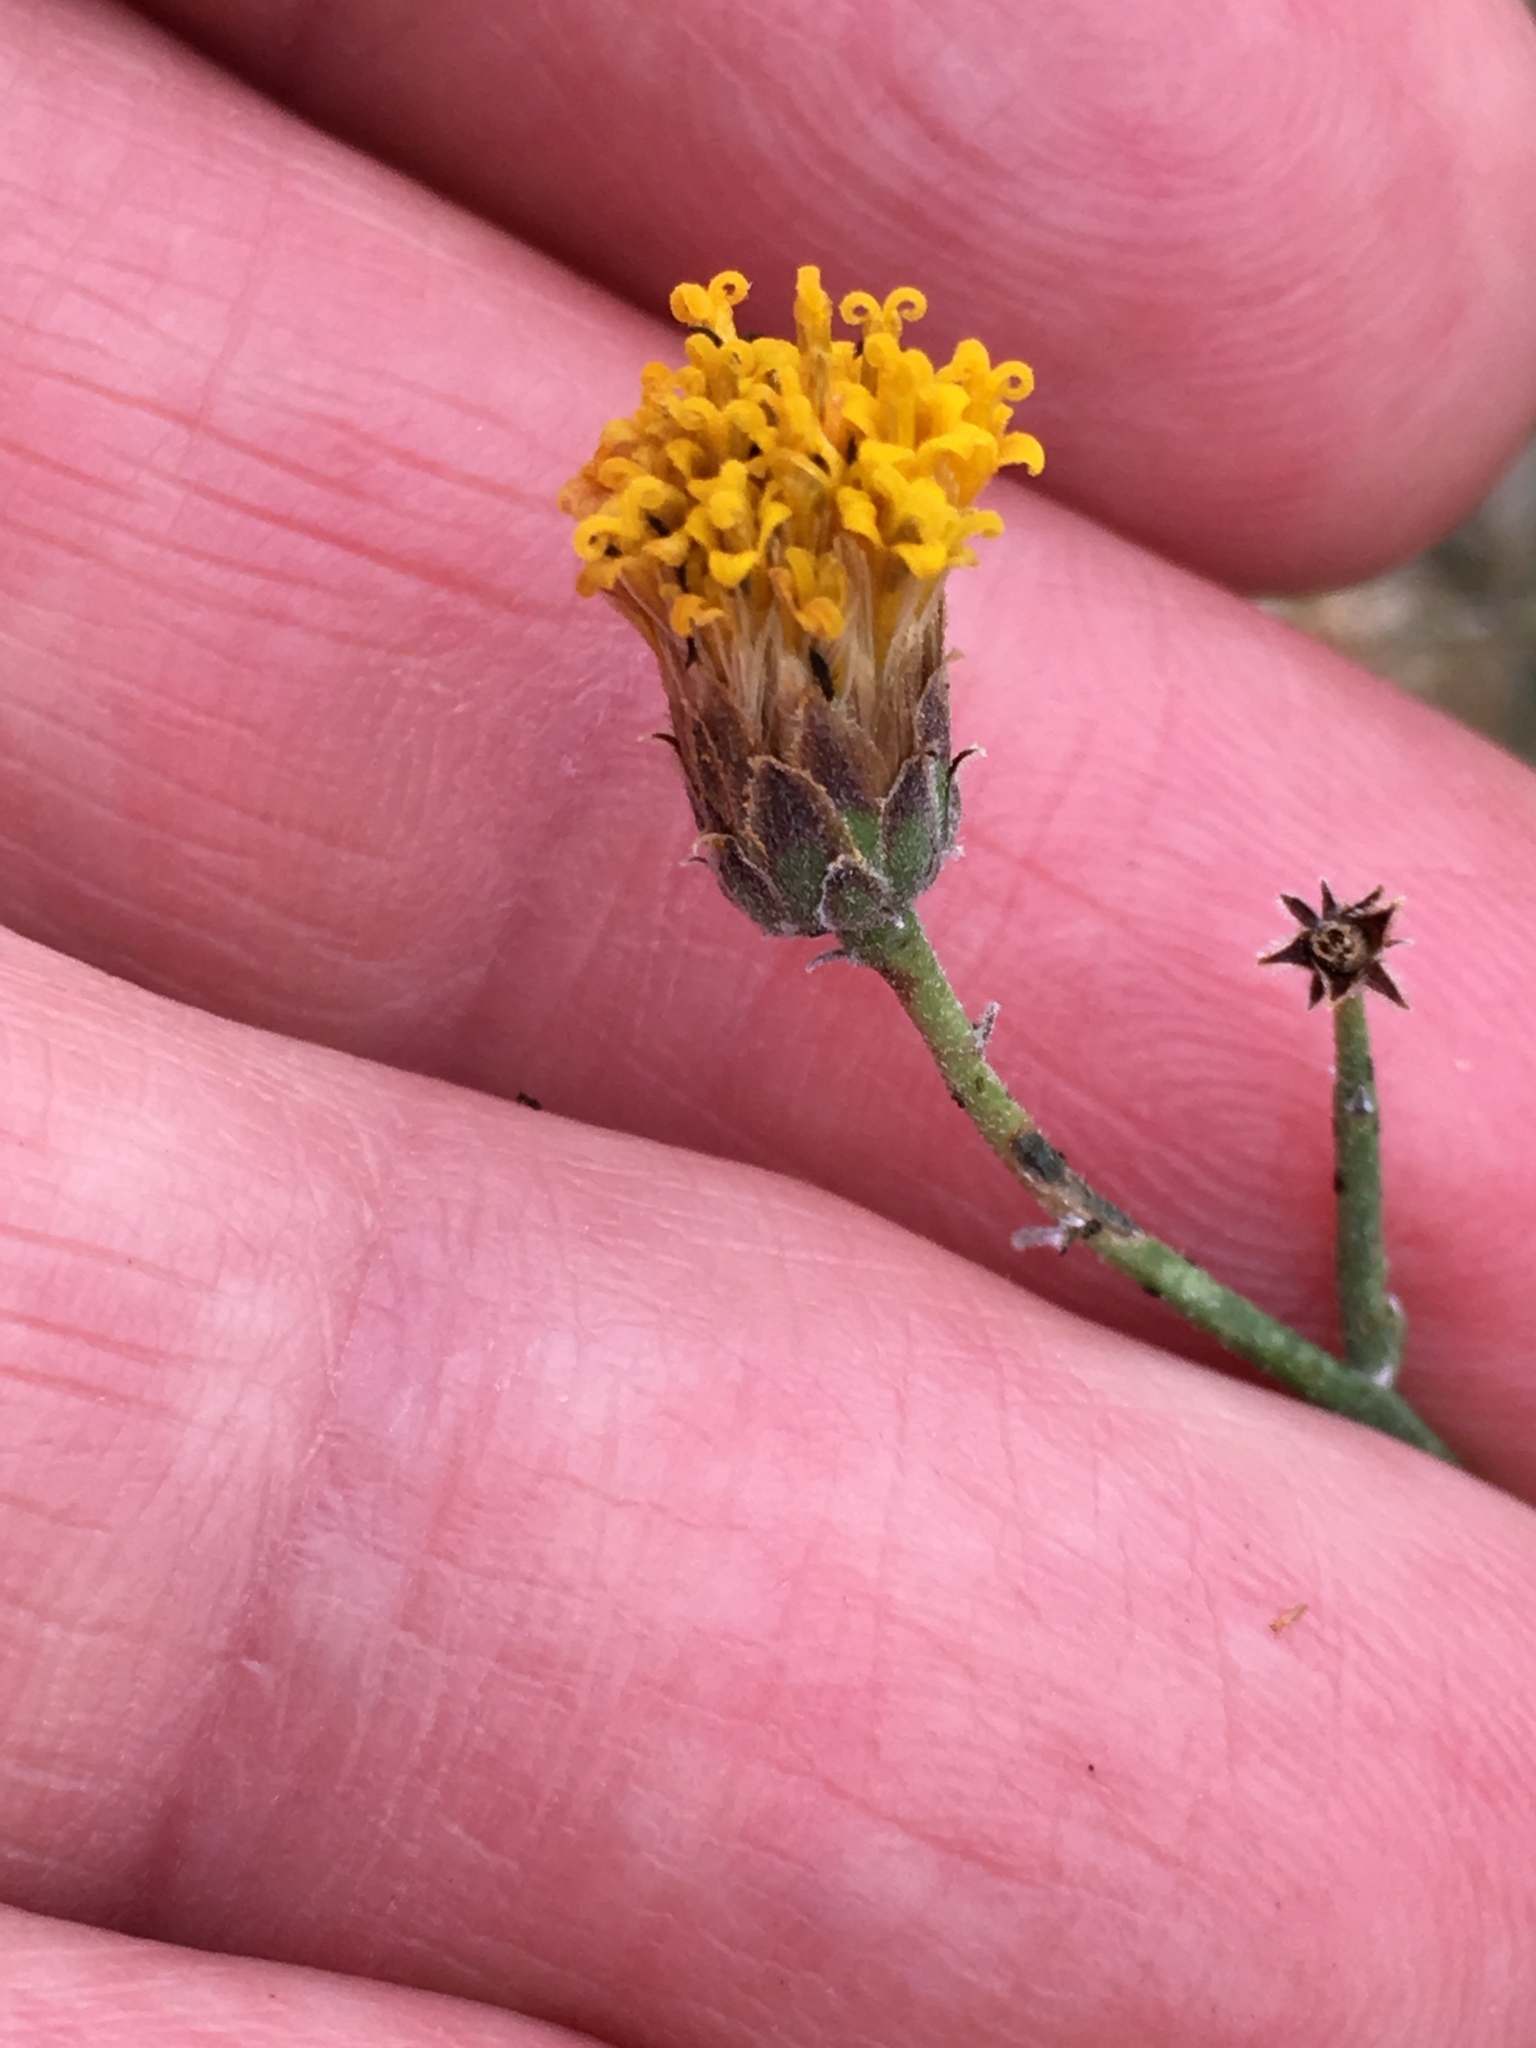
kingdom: Plantae
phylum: Tracheophyta
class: Magnoliopsida
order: Asterales
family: Asteraceae
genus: Bebbia
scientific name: Bebbia juncea
